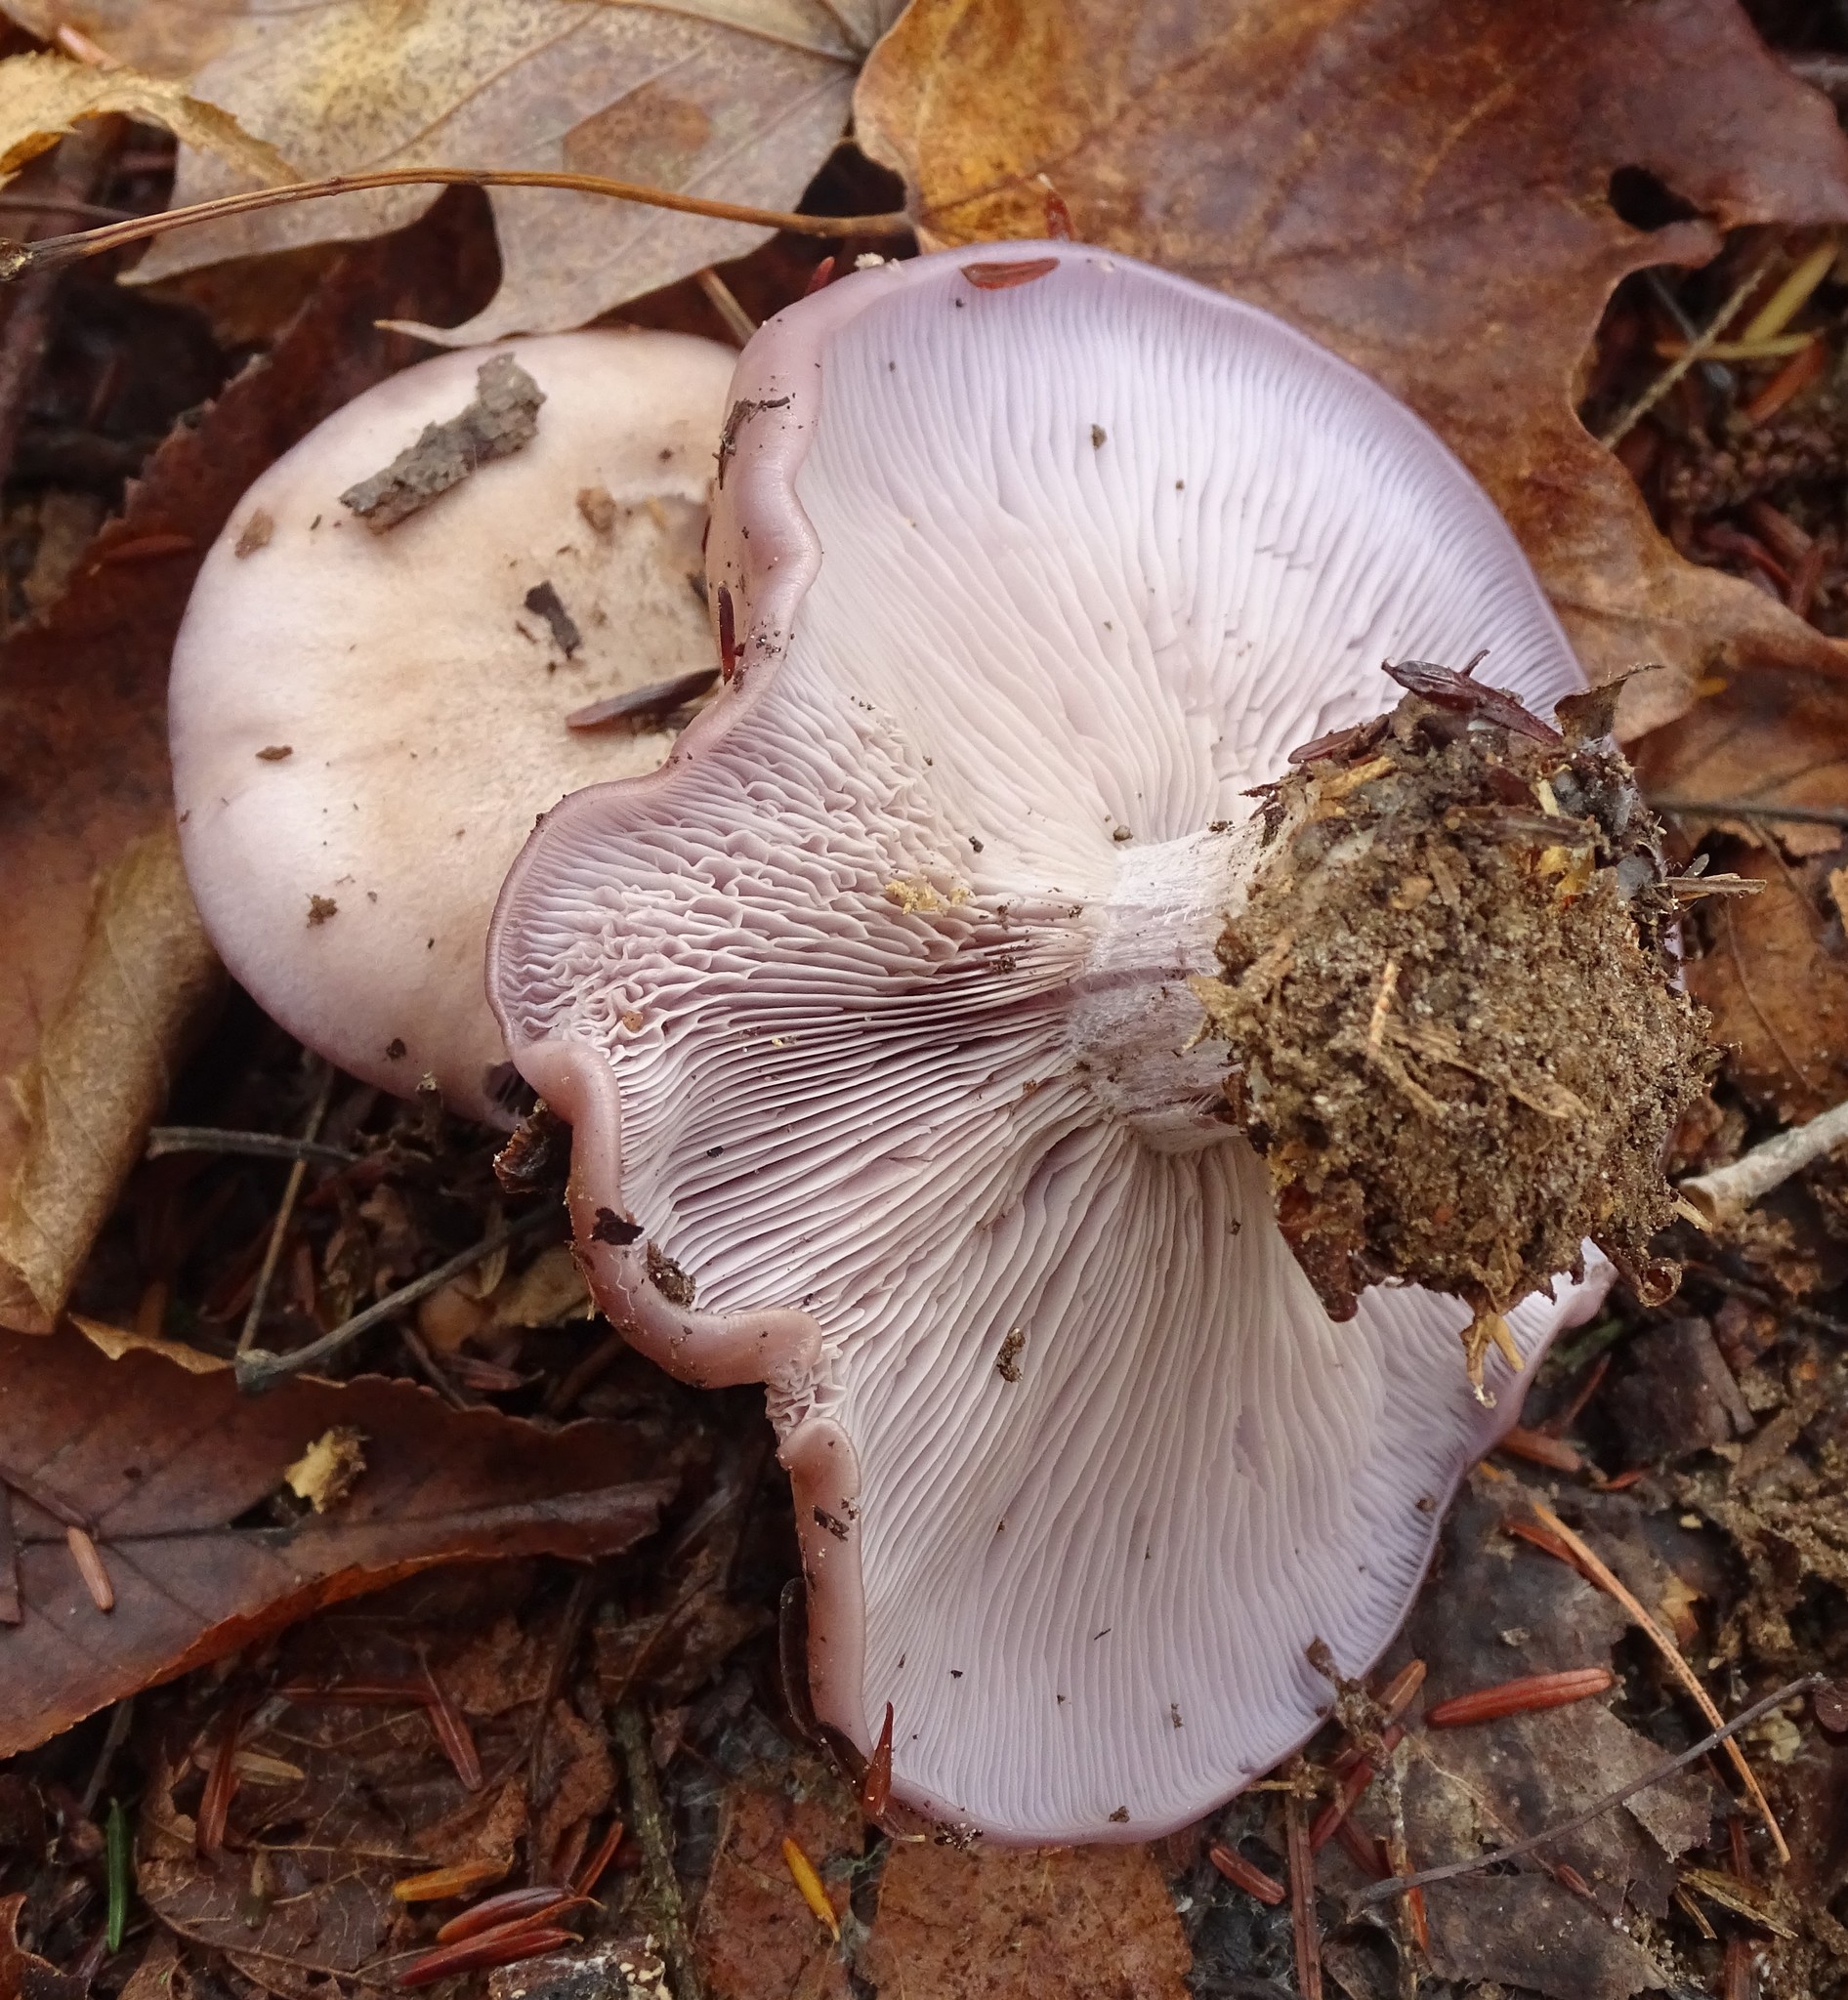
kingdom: Fungi
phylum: Basidiomycota
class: Agaricomycetes
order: Agaricales
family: Tricholomataceae
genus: Collybia
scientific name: Collybia
